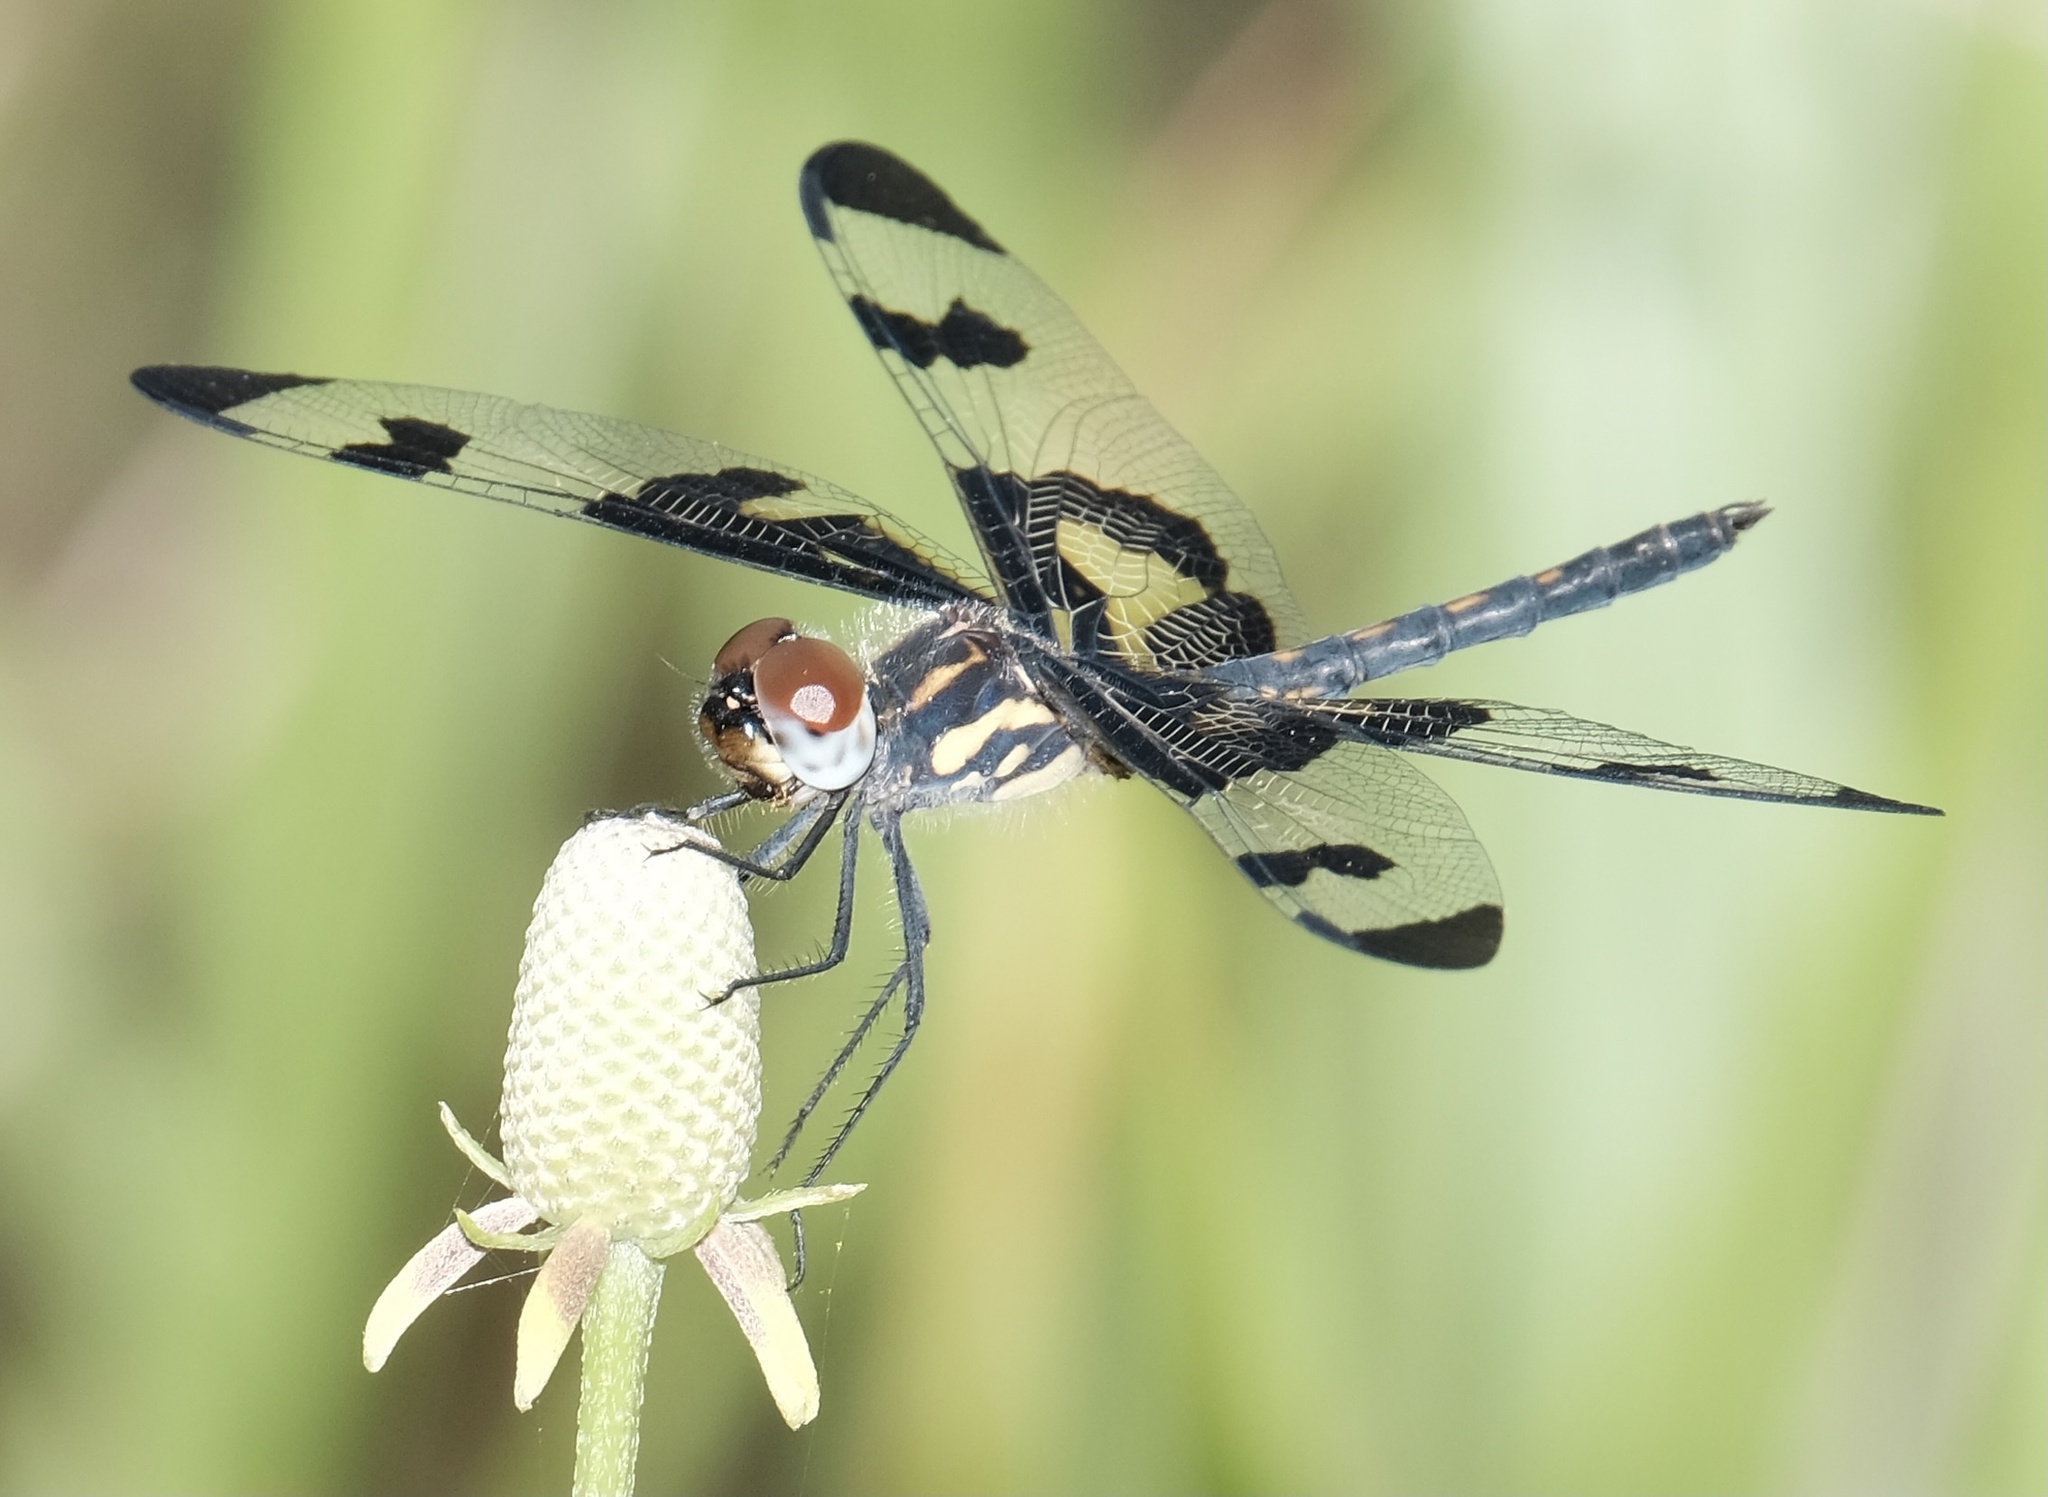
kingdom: Animalia
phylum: Arthropoda
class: Insecta
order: Odonata
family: Libellulidae
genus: Celithemis
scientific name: Celithemis fasciata
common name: Banded pennant
